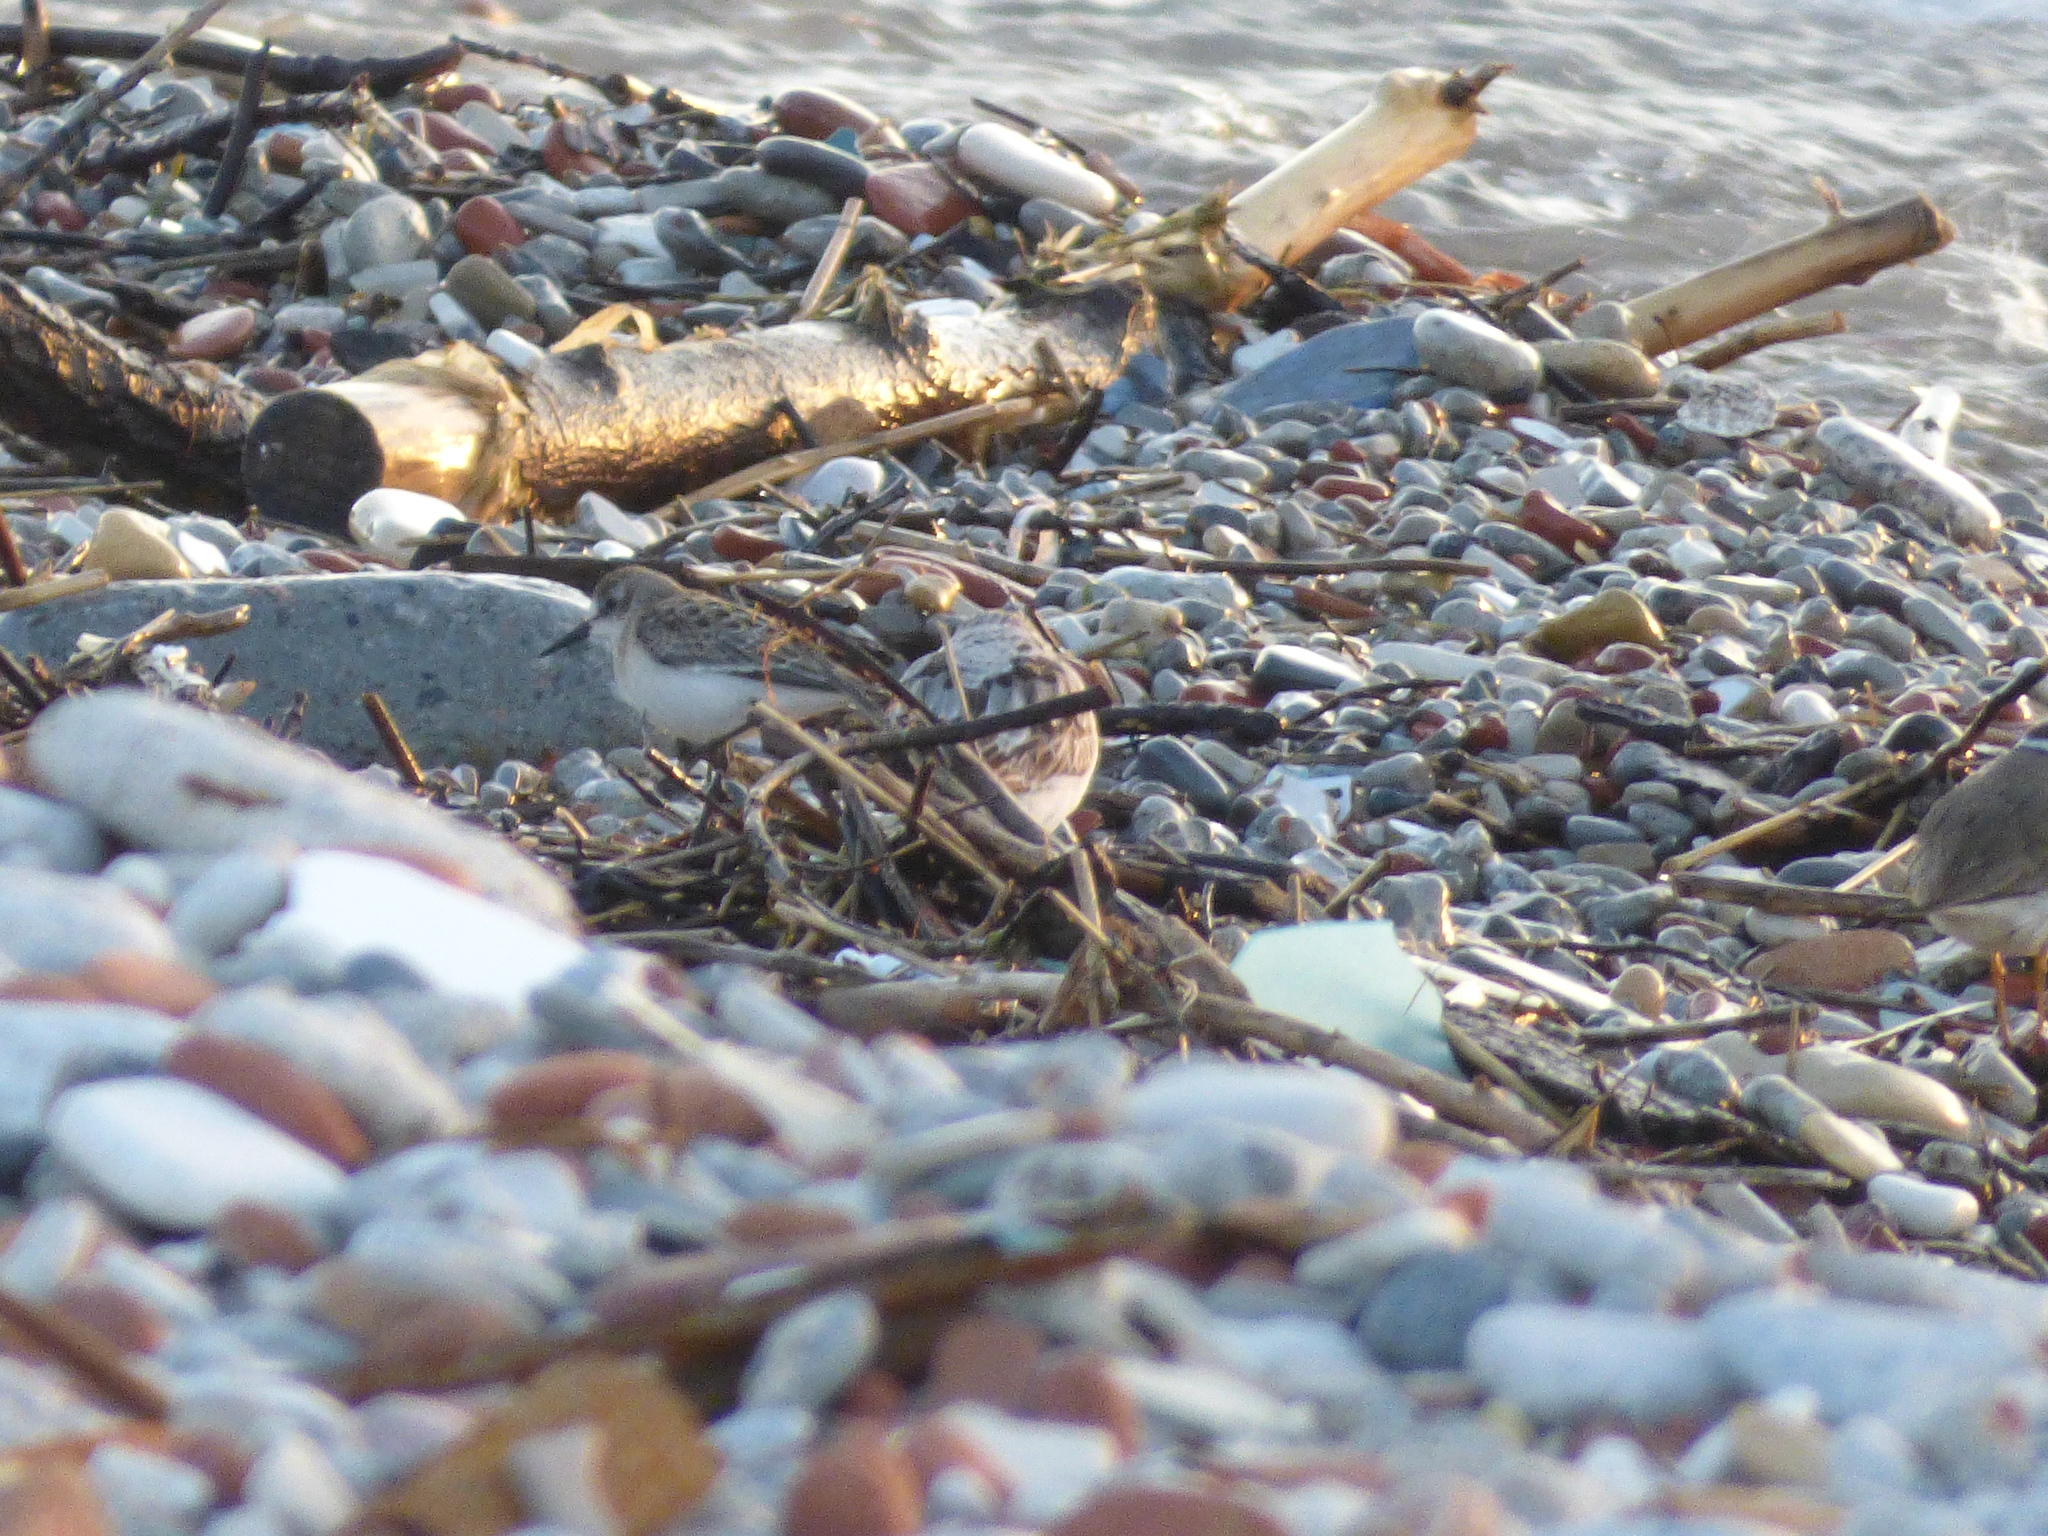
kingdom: Animalia
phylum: Chordata
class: Aves
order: Charadriiformes
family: Scolopacidae
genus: Calidris
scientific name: Calidris pusilla
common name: Semipalmated sandpiper
